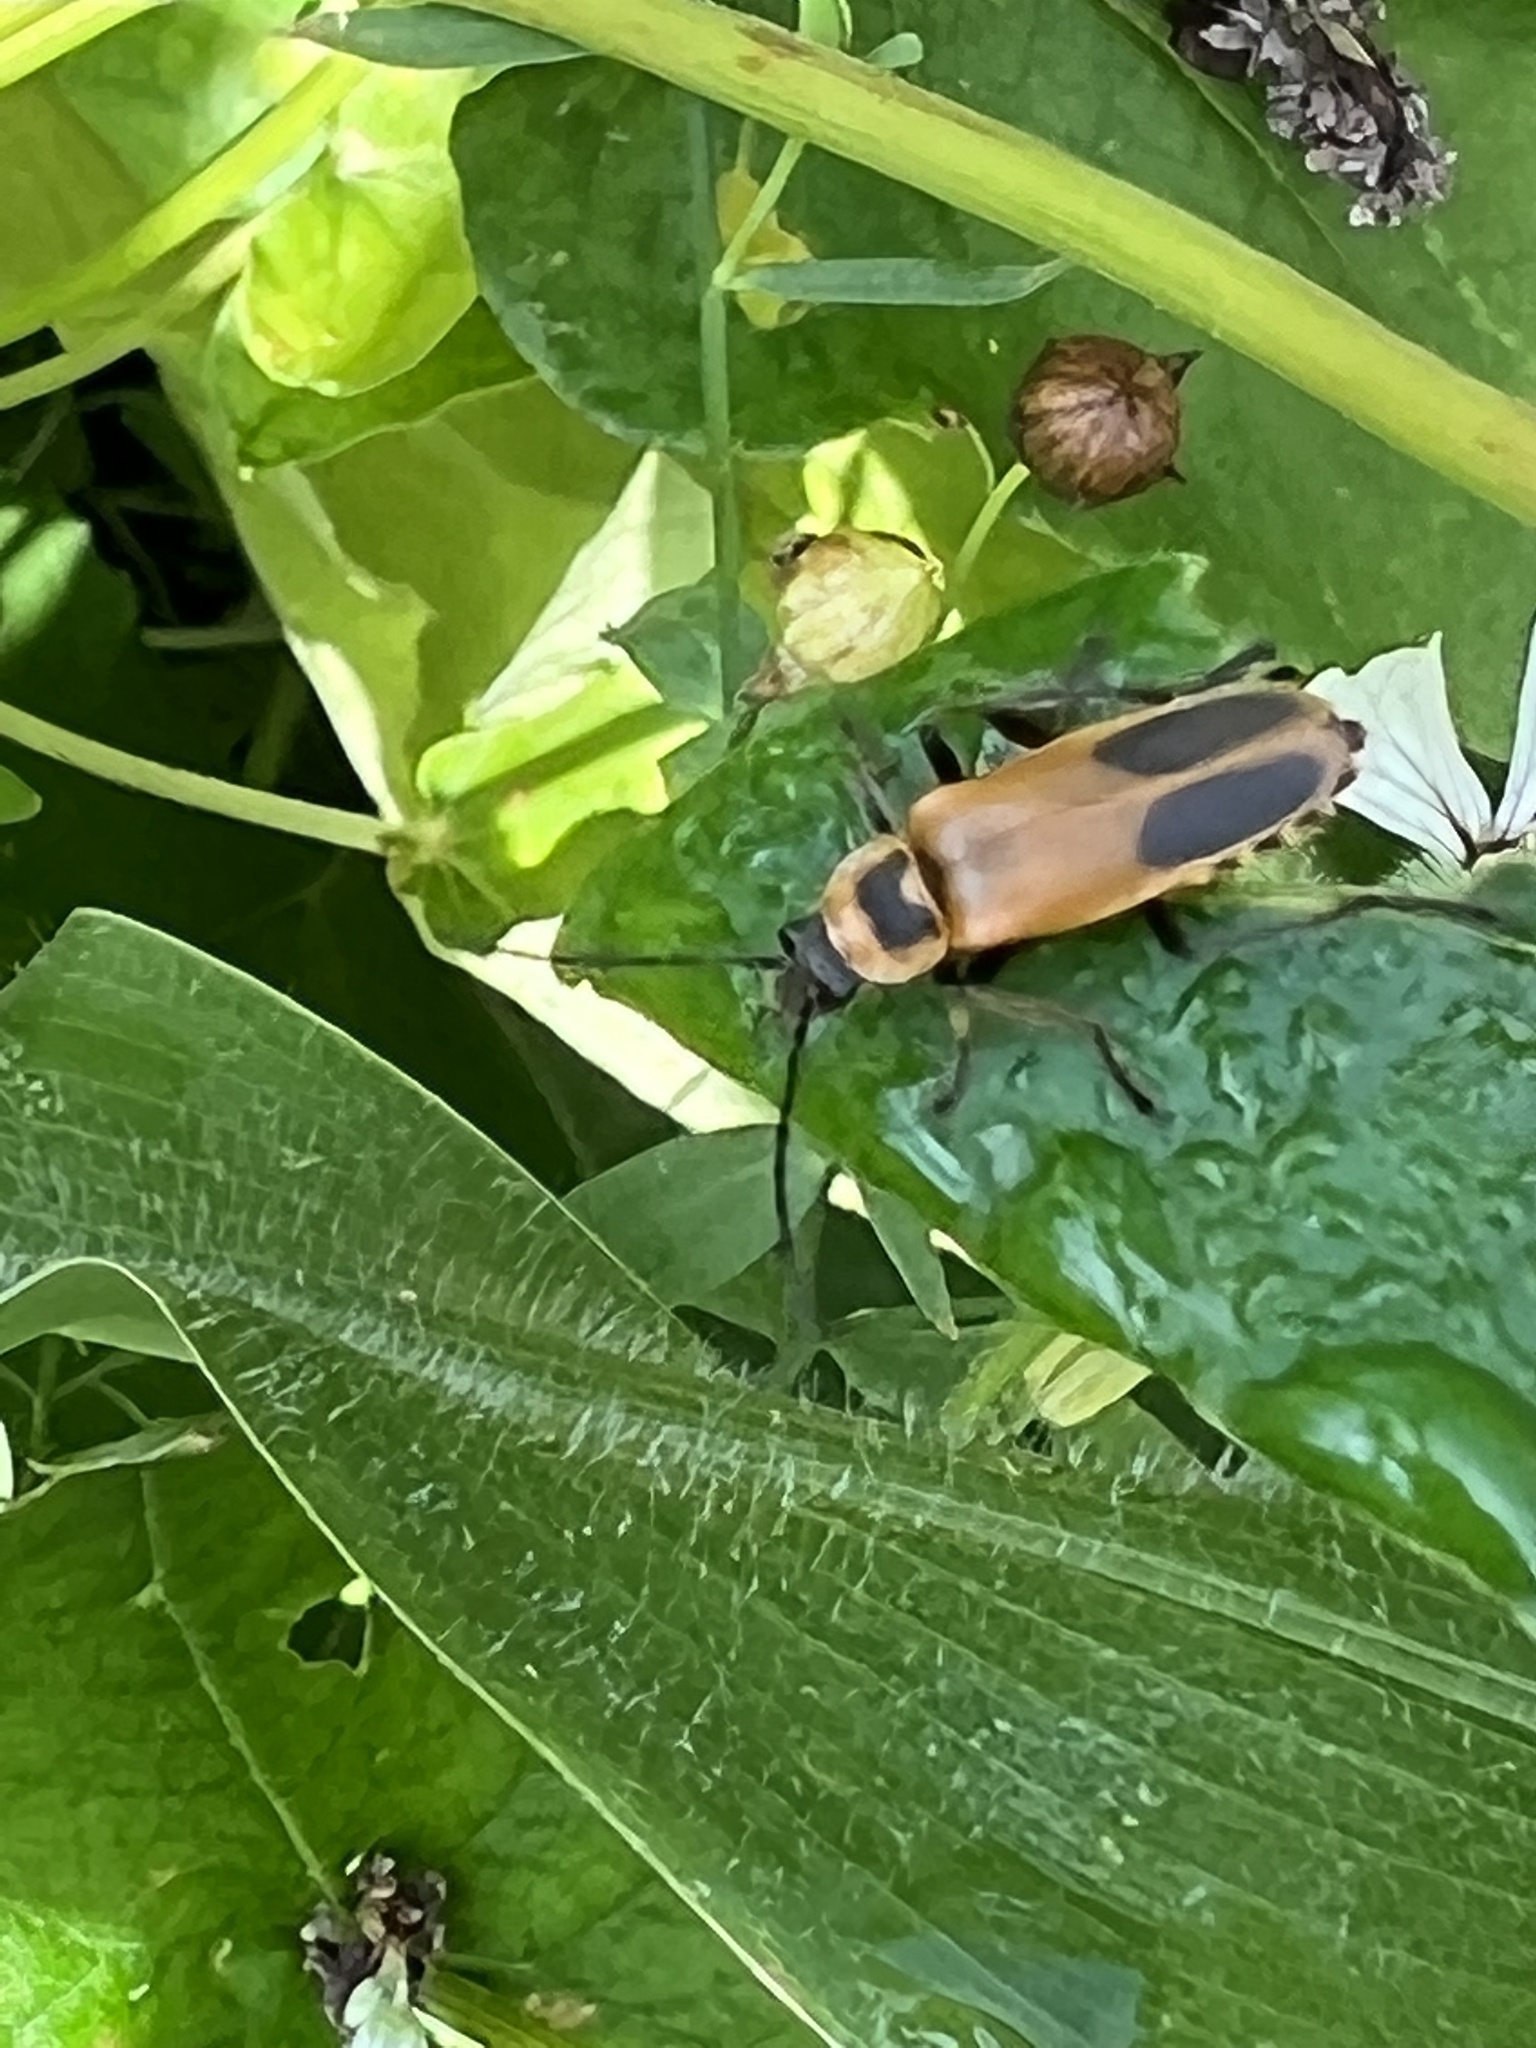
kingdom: Animalia
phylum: Arthropoda
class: Insecta
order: Coleoptera
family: Cantharidae
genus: Chauliognathus
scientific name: Chauliognathus pensylvanicus
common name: Goldenrod soldier beetle
